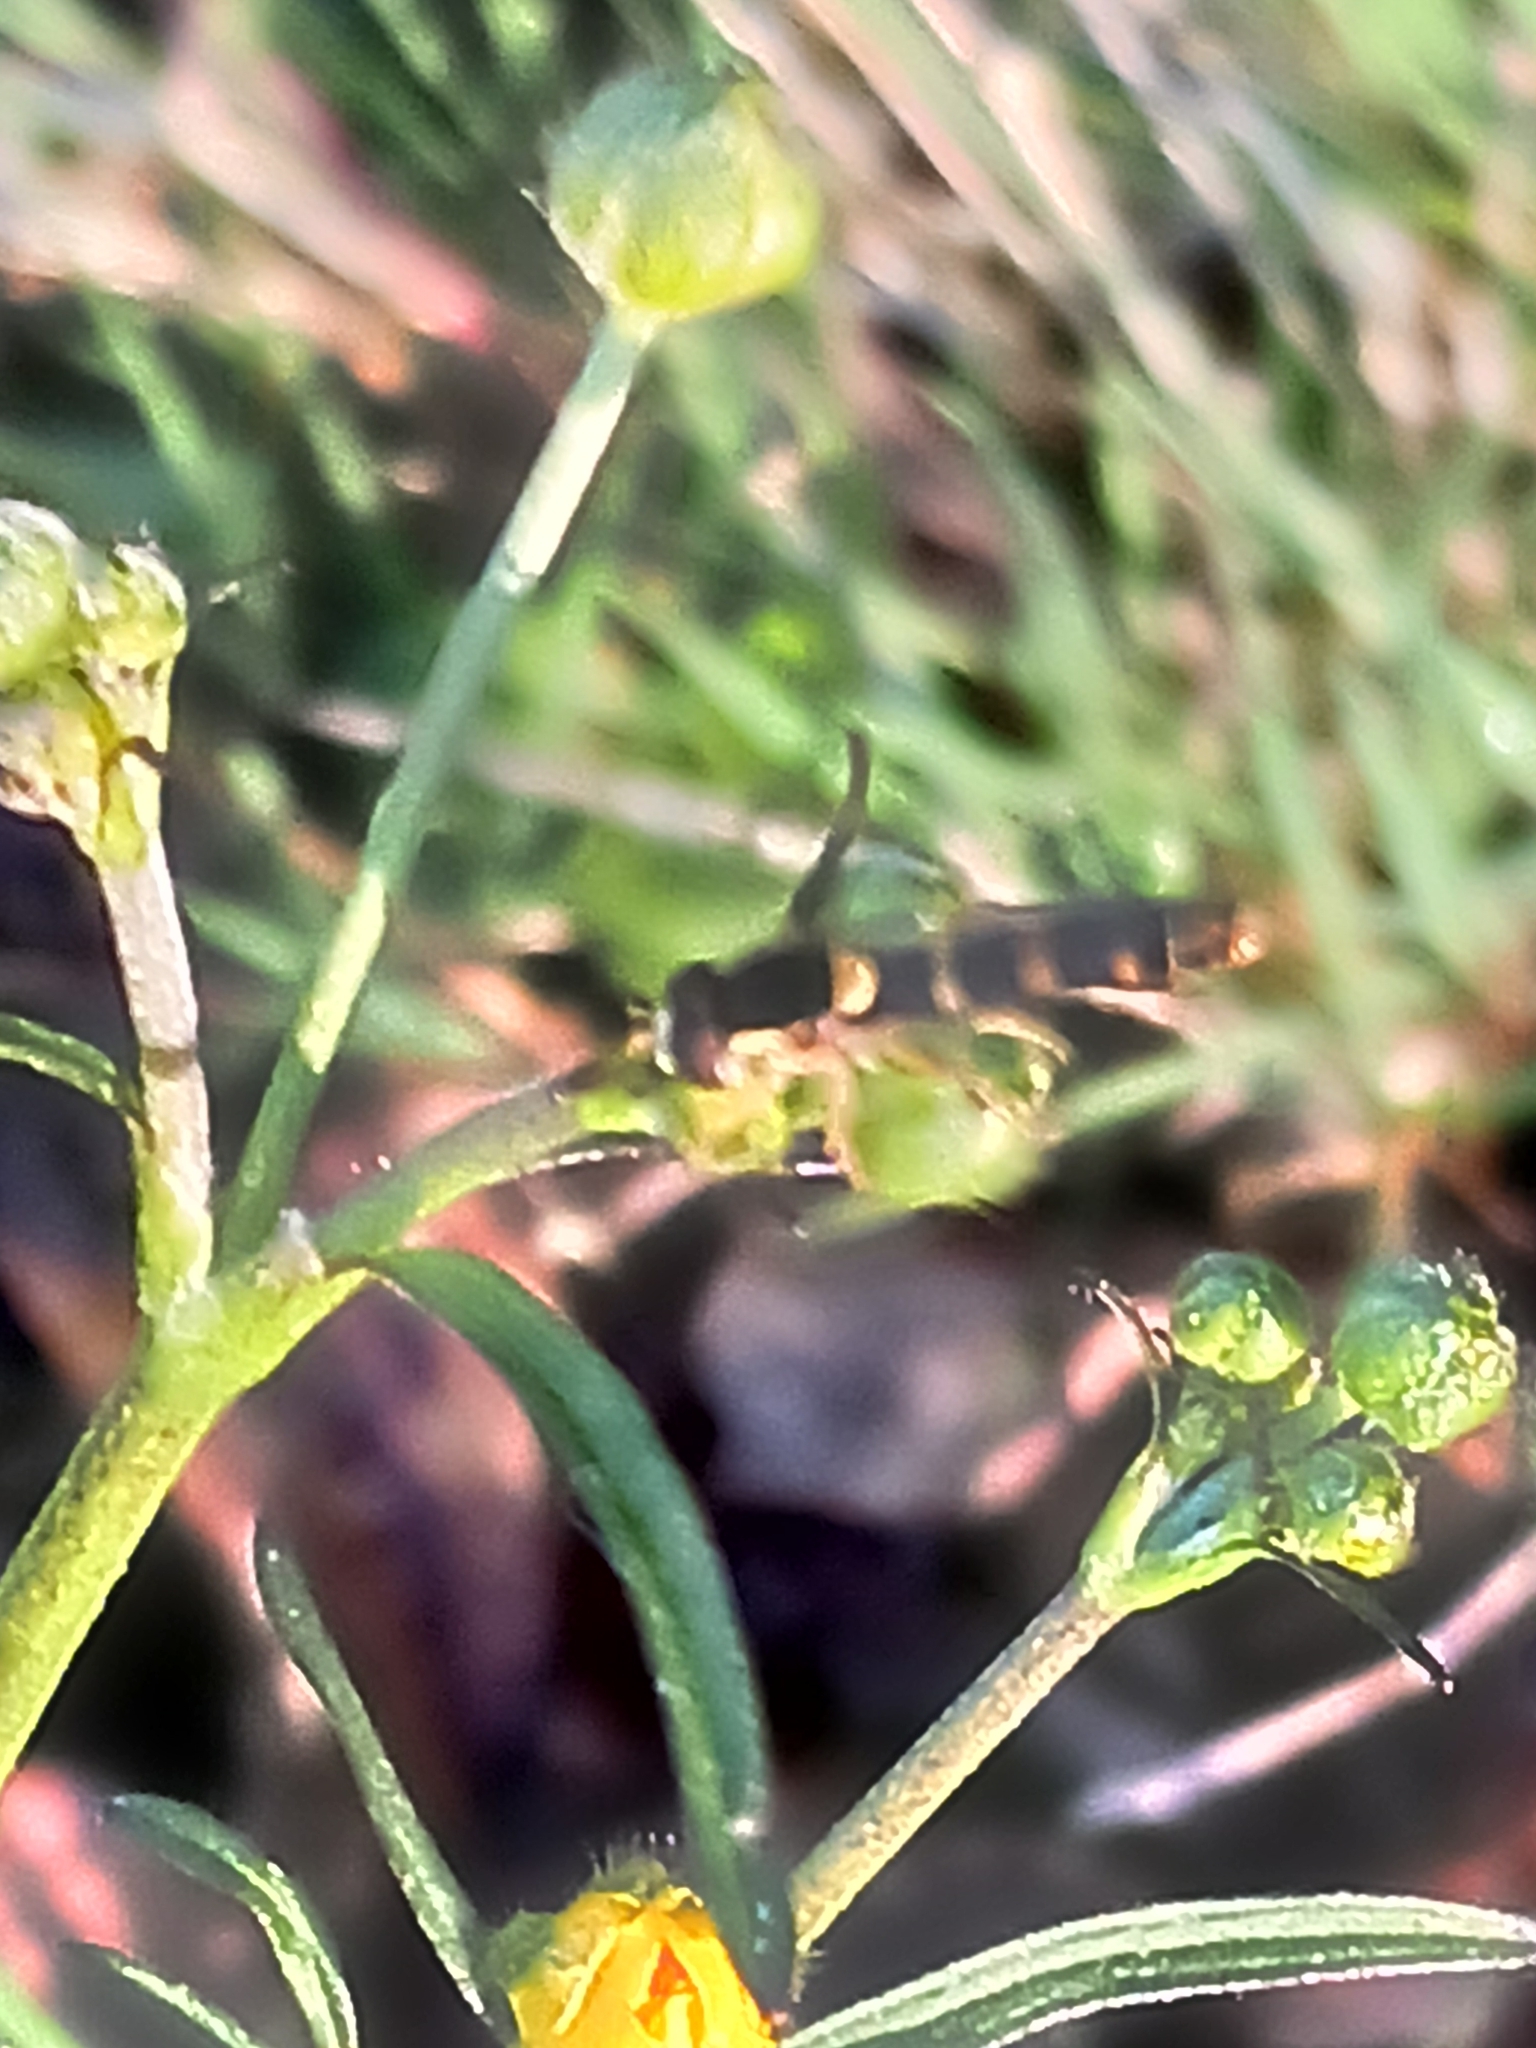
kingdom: Animalia
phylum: Arthropoda
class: Insecta
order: Diptera
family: Syrphidae
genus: Sphaerophoria
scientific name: Sphaerophoria scripta
